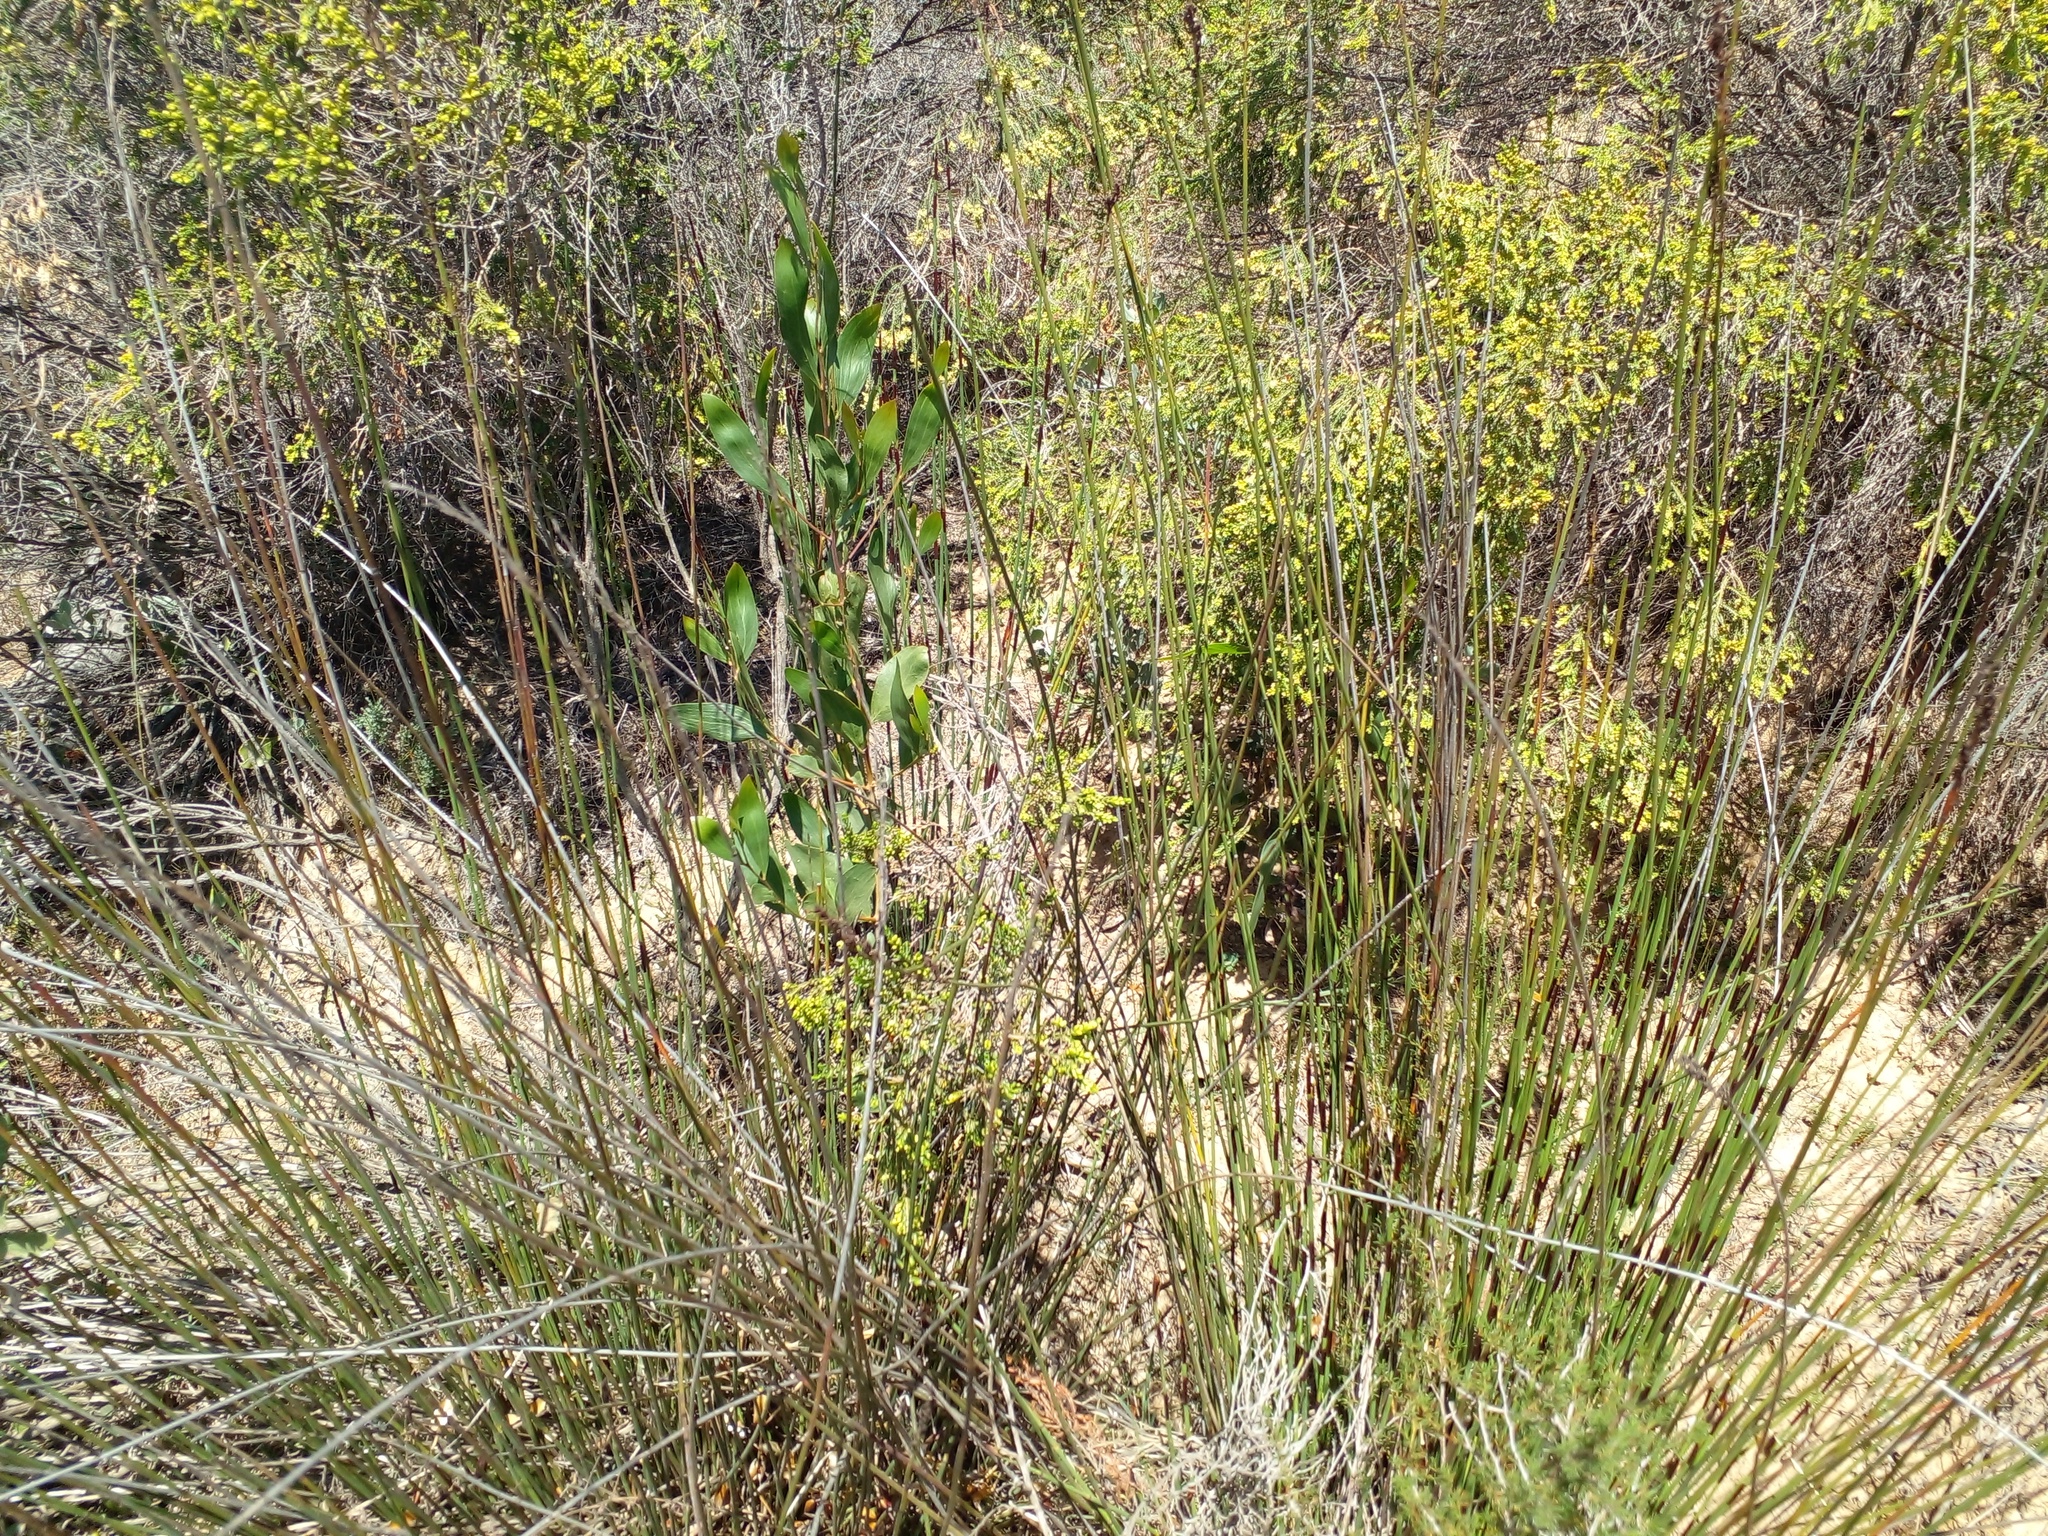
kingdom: Plantae
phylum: Tracheophyta
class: Magnoliopsida
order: Fabales
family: Fabaceae
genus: Acacia
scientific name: Acacia cyclops
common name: Coastal wattle
